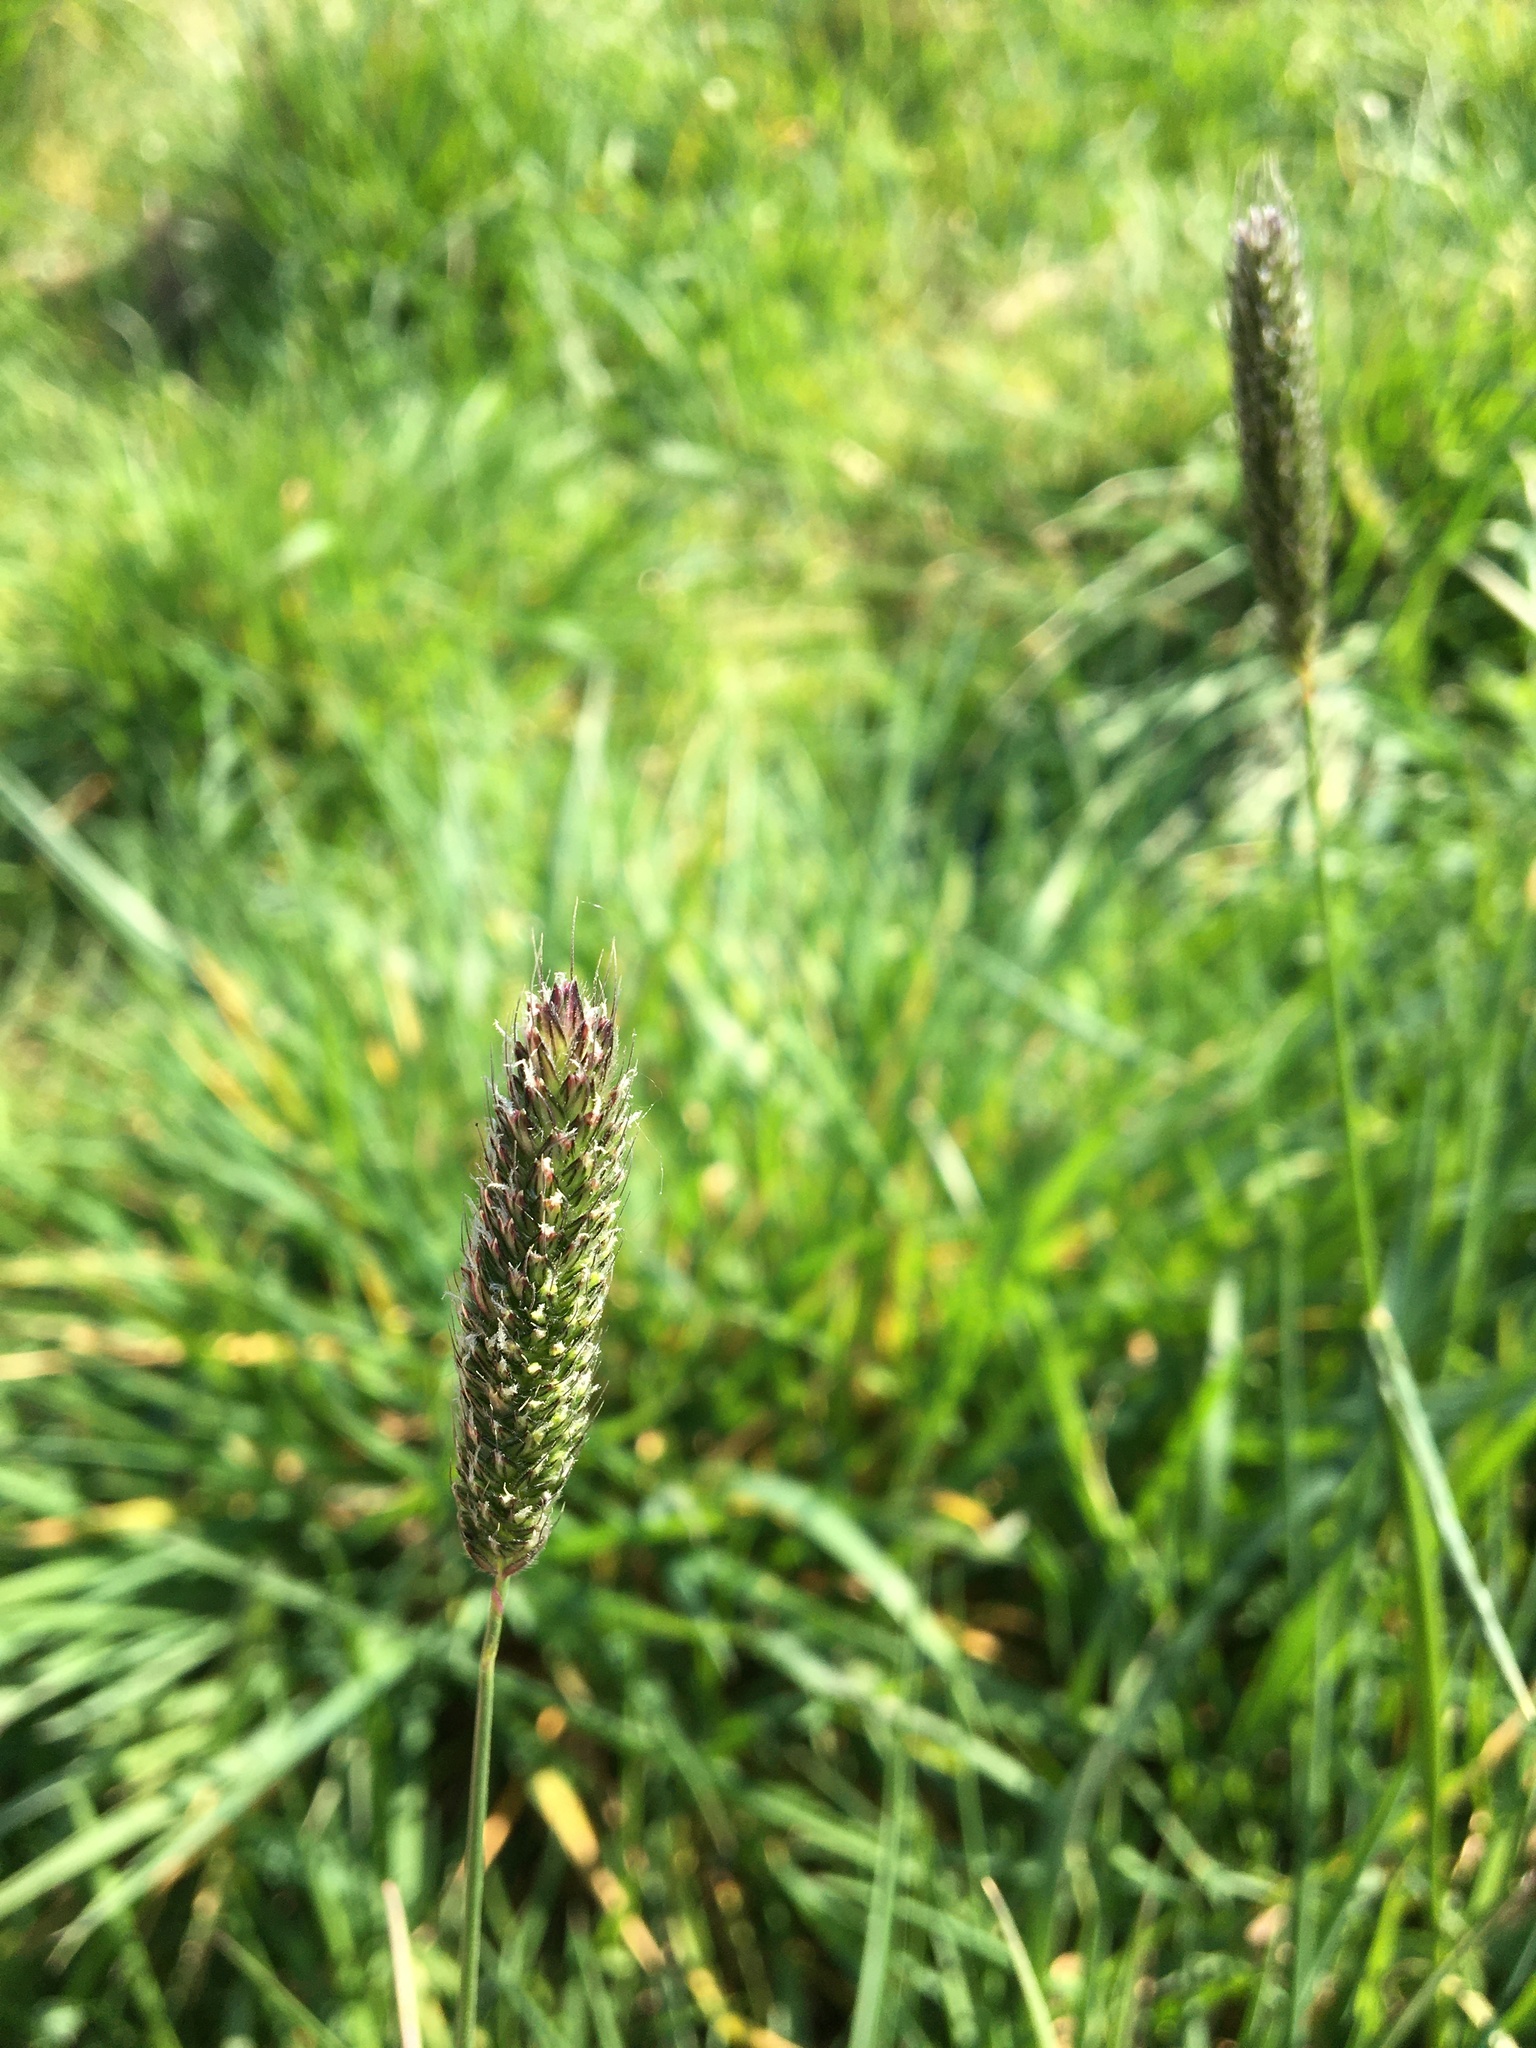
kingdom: Plantae
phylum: Tracheophyta
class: Liliopsida
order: Poales
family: Poaceae
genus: Alopecurus
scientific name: Alopecurus pratensis
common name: Meadow foxtail
